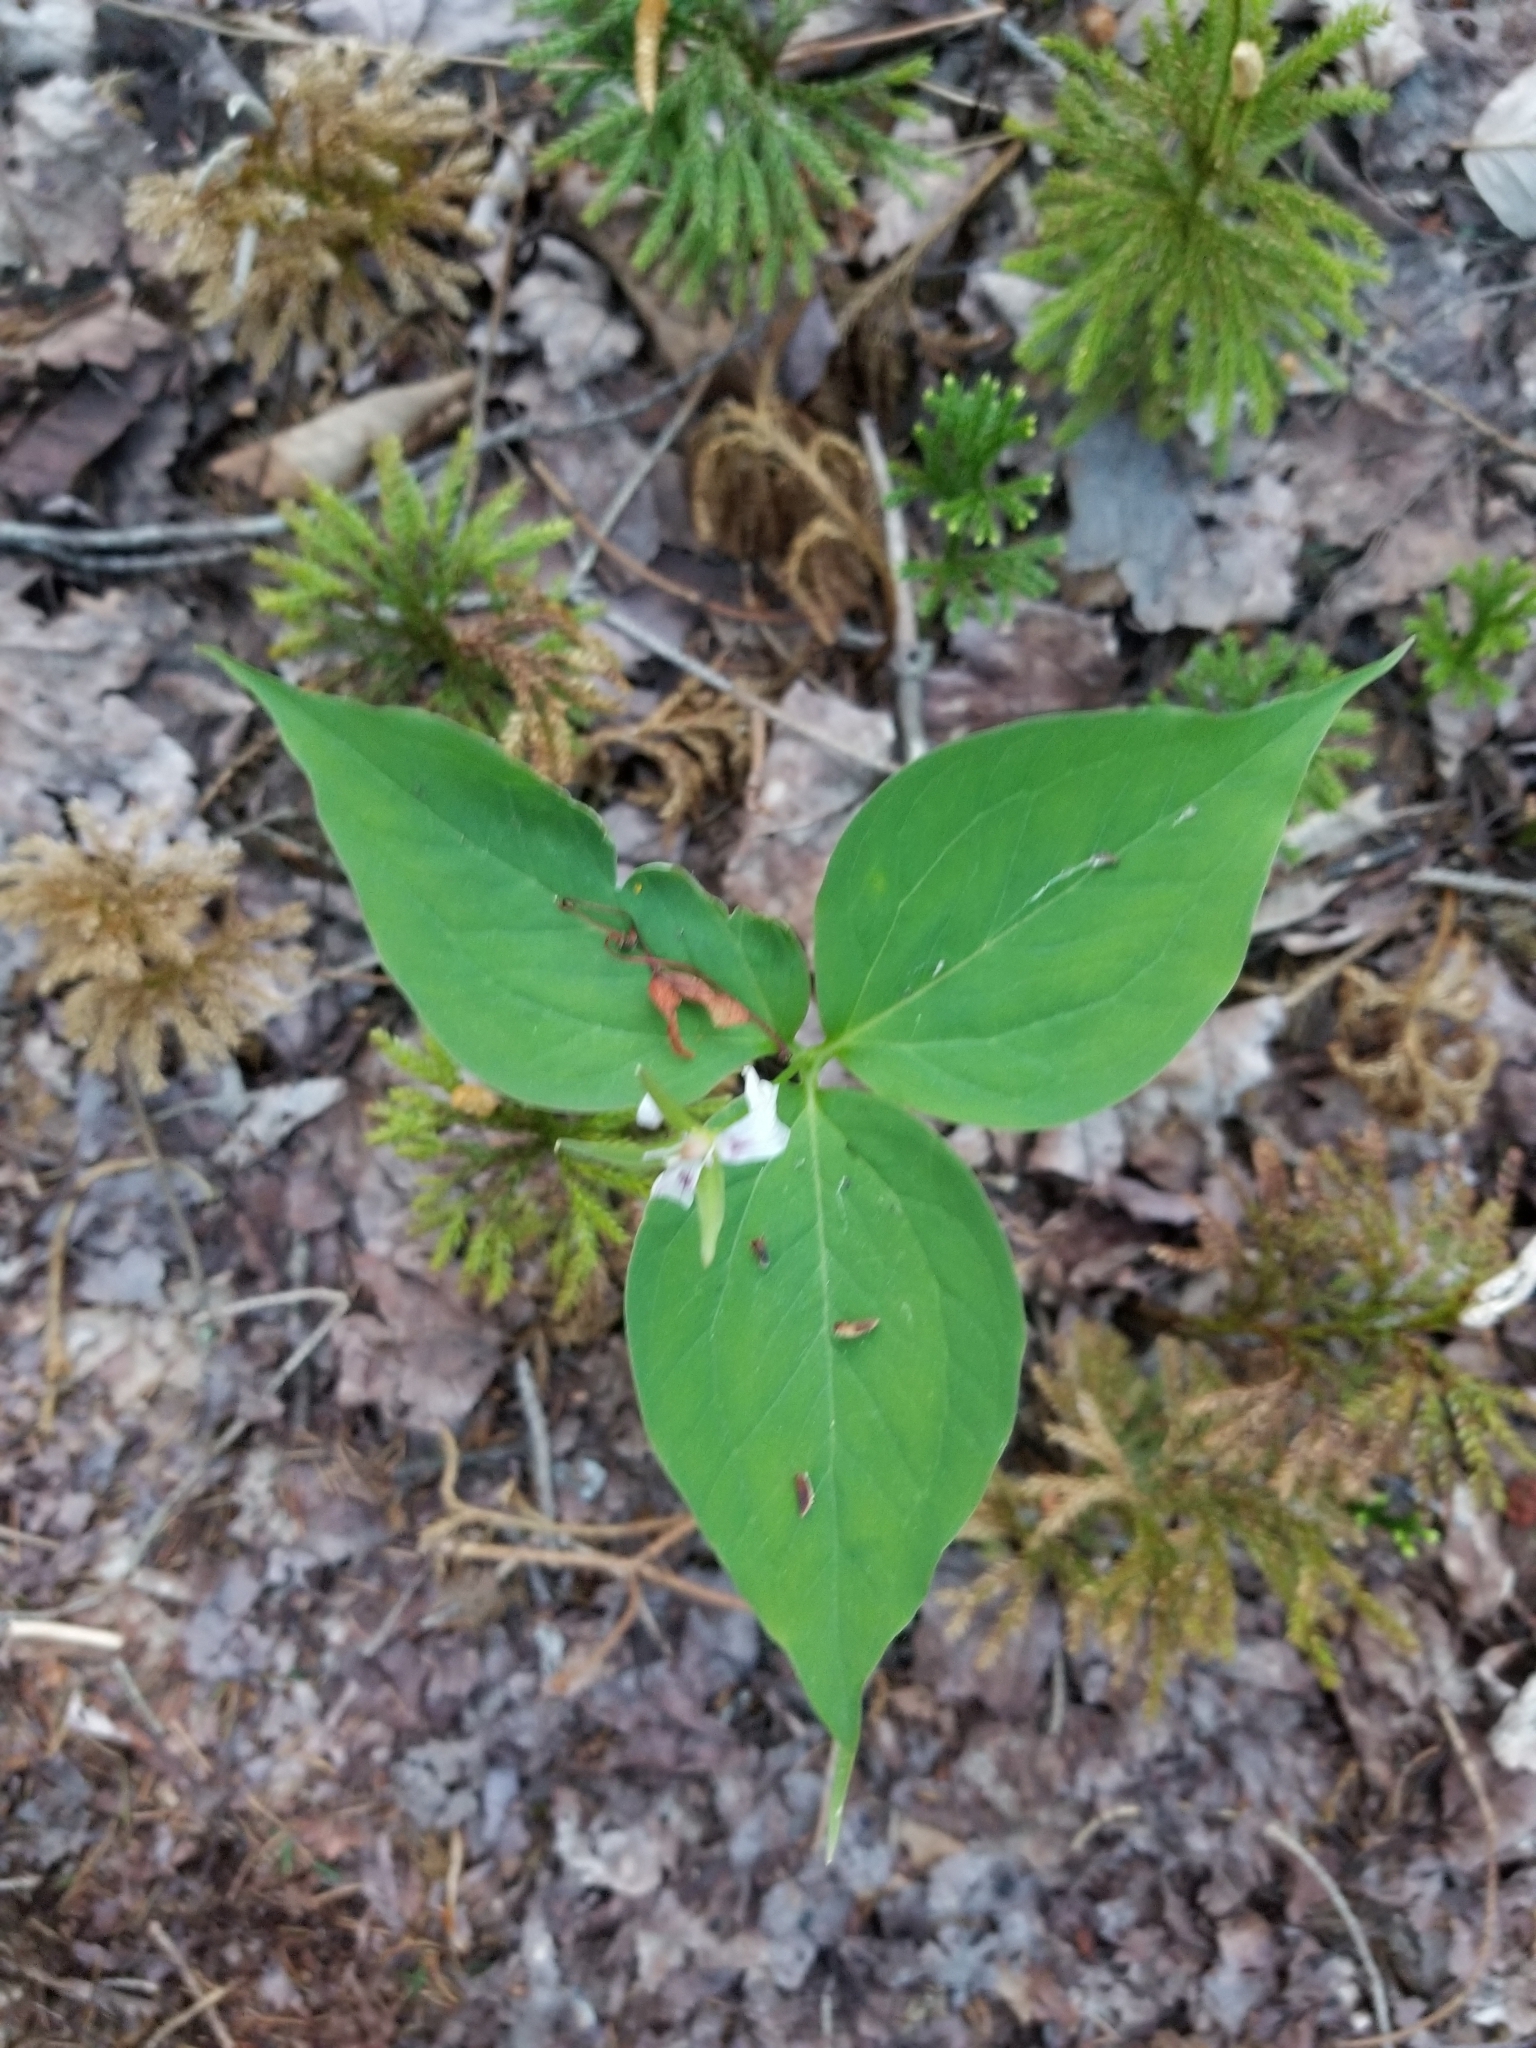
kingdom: Plantae
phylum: Tracheophyta
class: Liliopsida
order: Liliales
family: Melanthiaceae
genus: Trillium
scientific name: Trillium undulatum
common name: Paint trillium
